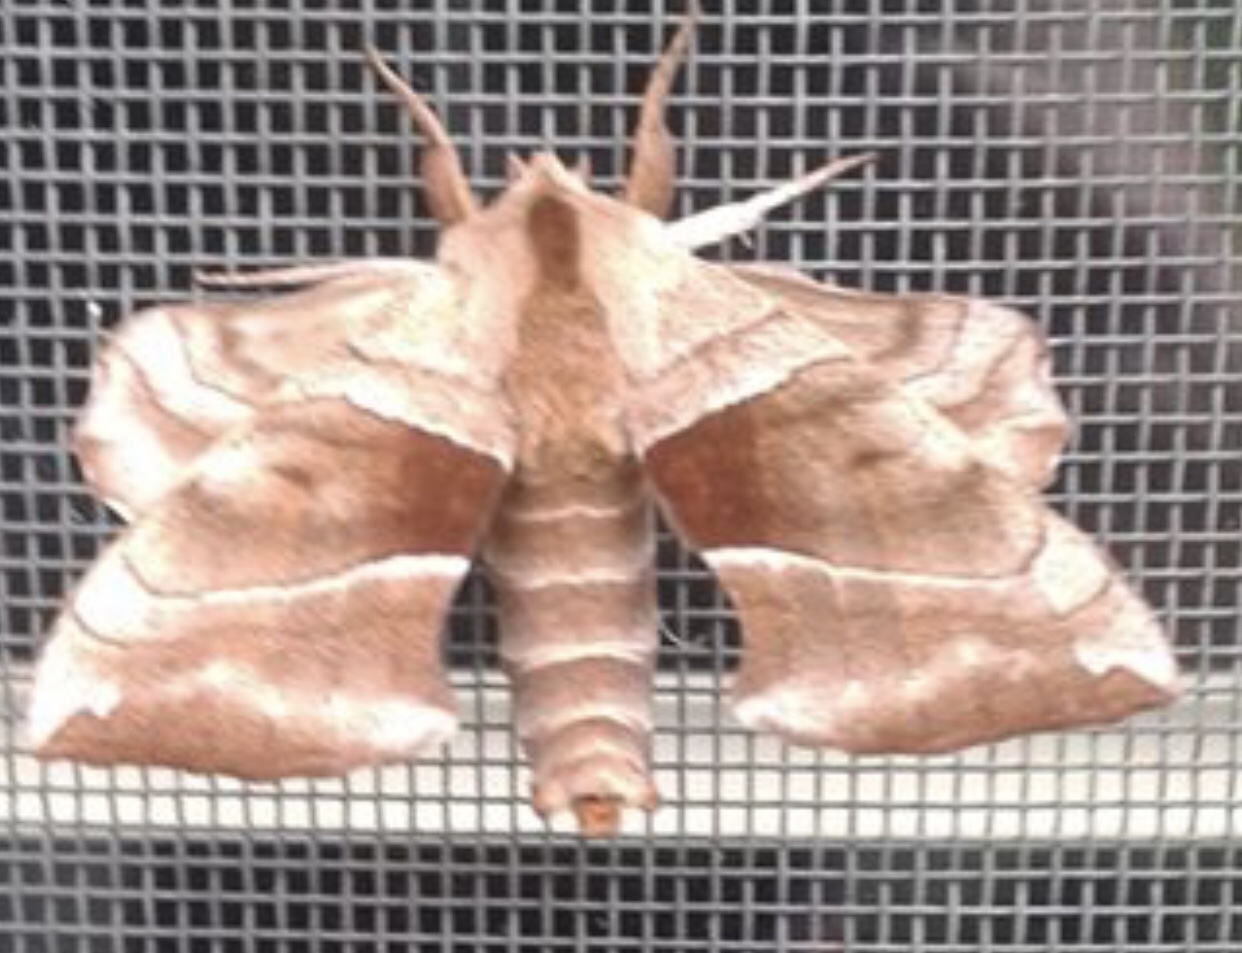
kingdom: Animalia
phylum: Arthropoda
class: Insecta
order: Lepidoptera
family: Sphingidae
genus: Amorpha
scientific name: Amorpha juglandis
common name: Walnut sphinx
